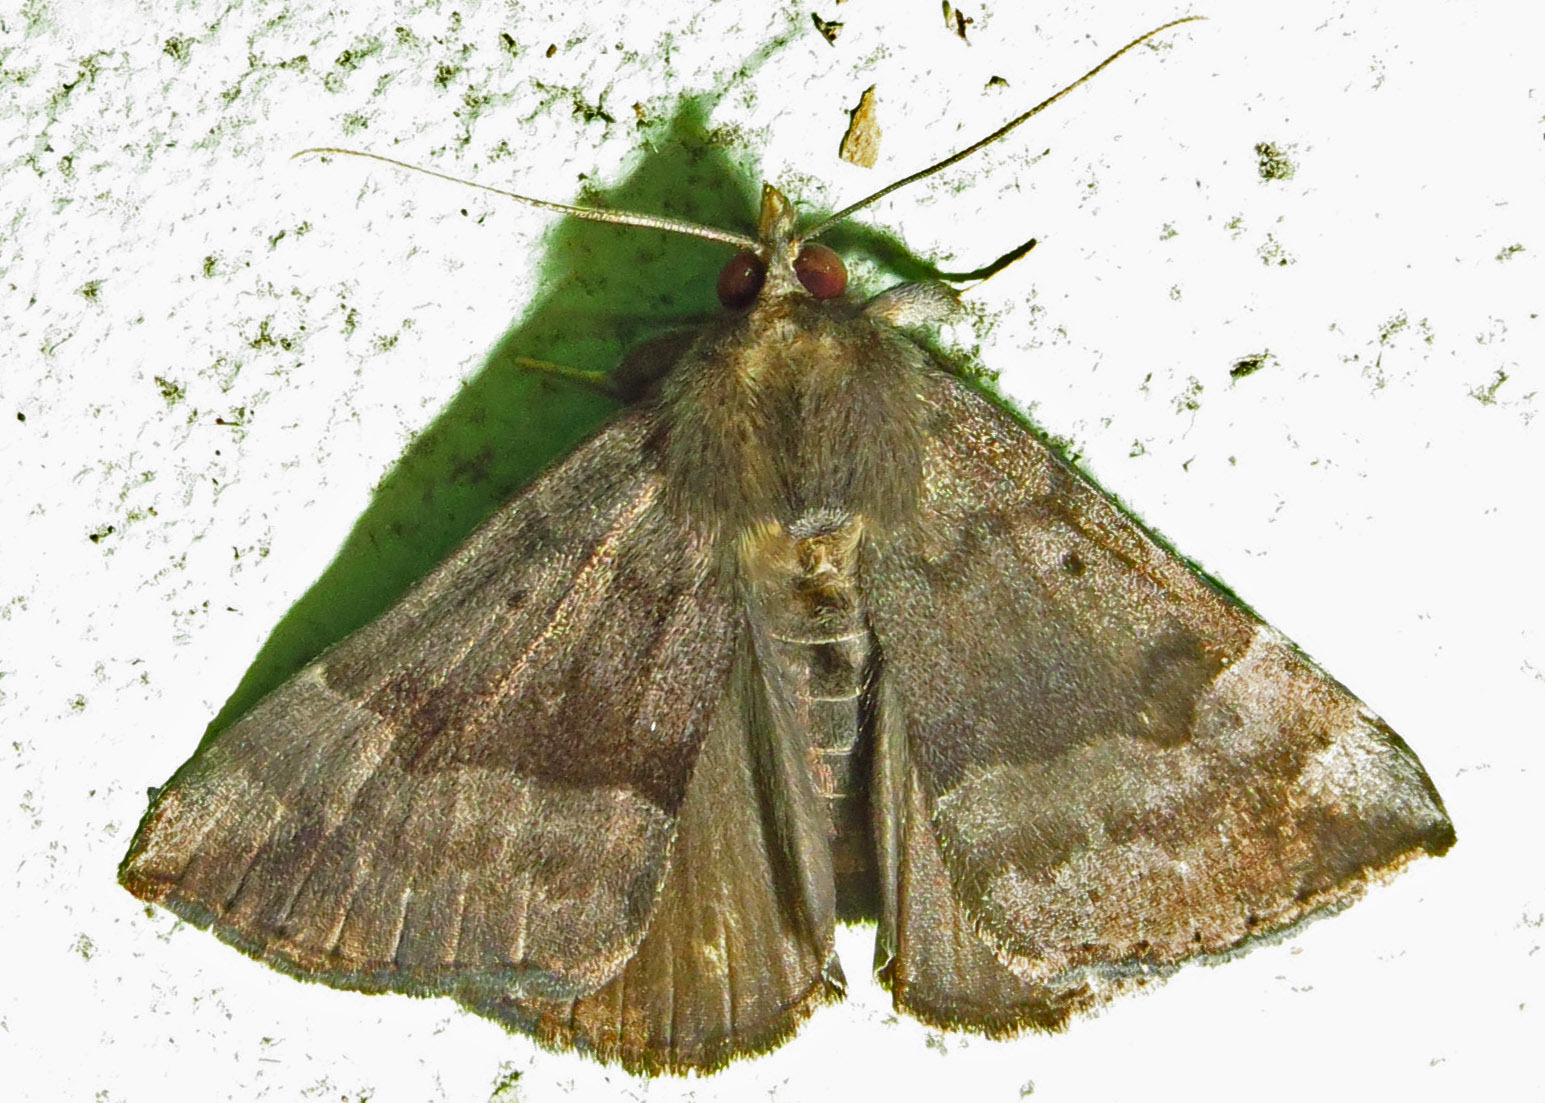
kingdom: Animalia
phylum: Arthropoda
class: Insecta
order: Lepidoptera
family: Erebidae
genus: Hypena
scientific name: Hypena madefactalis
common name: Gray-edged snout
